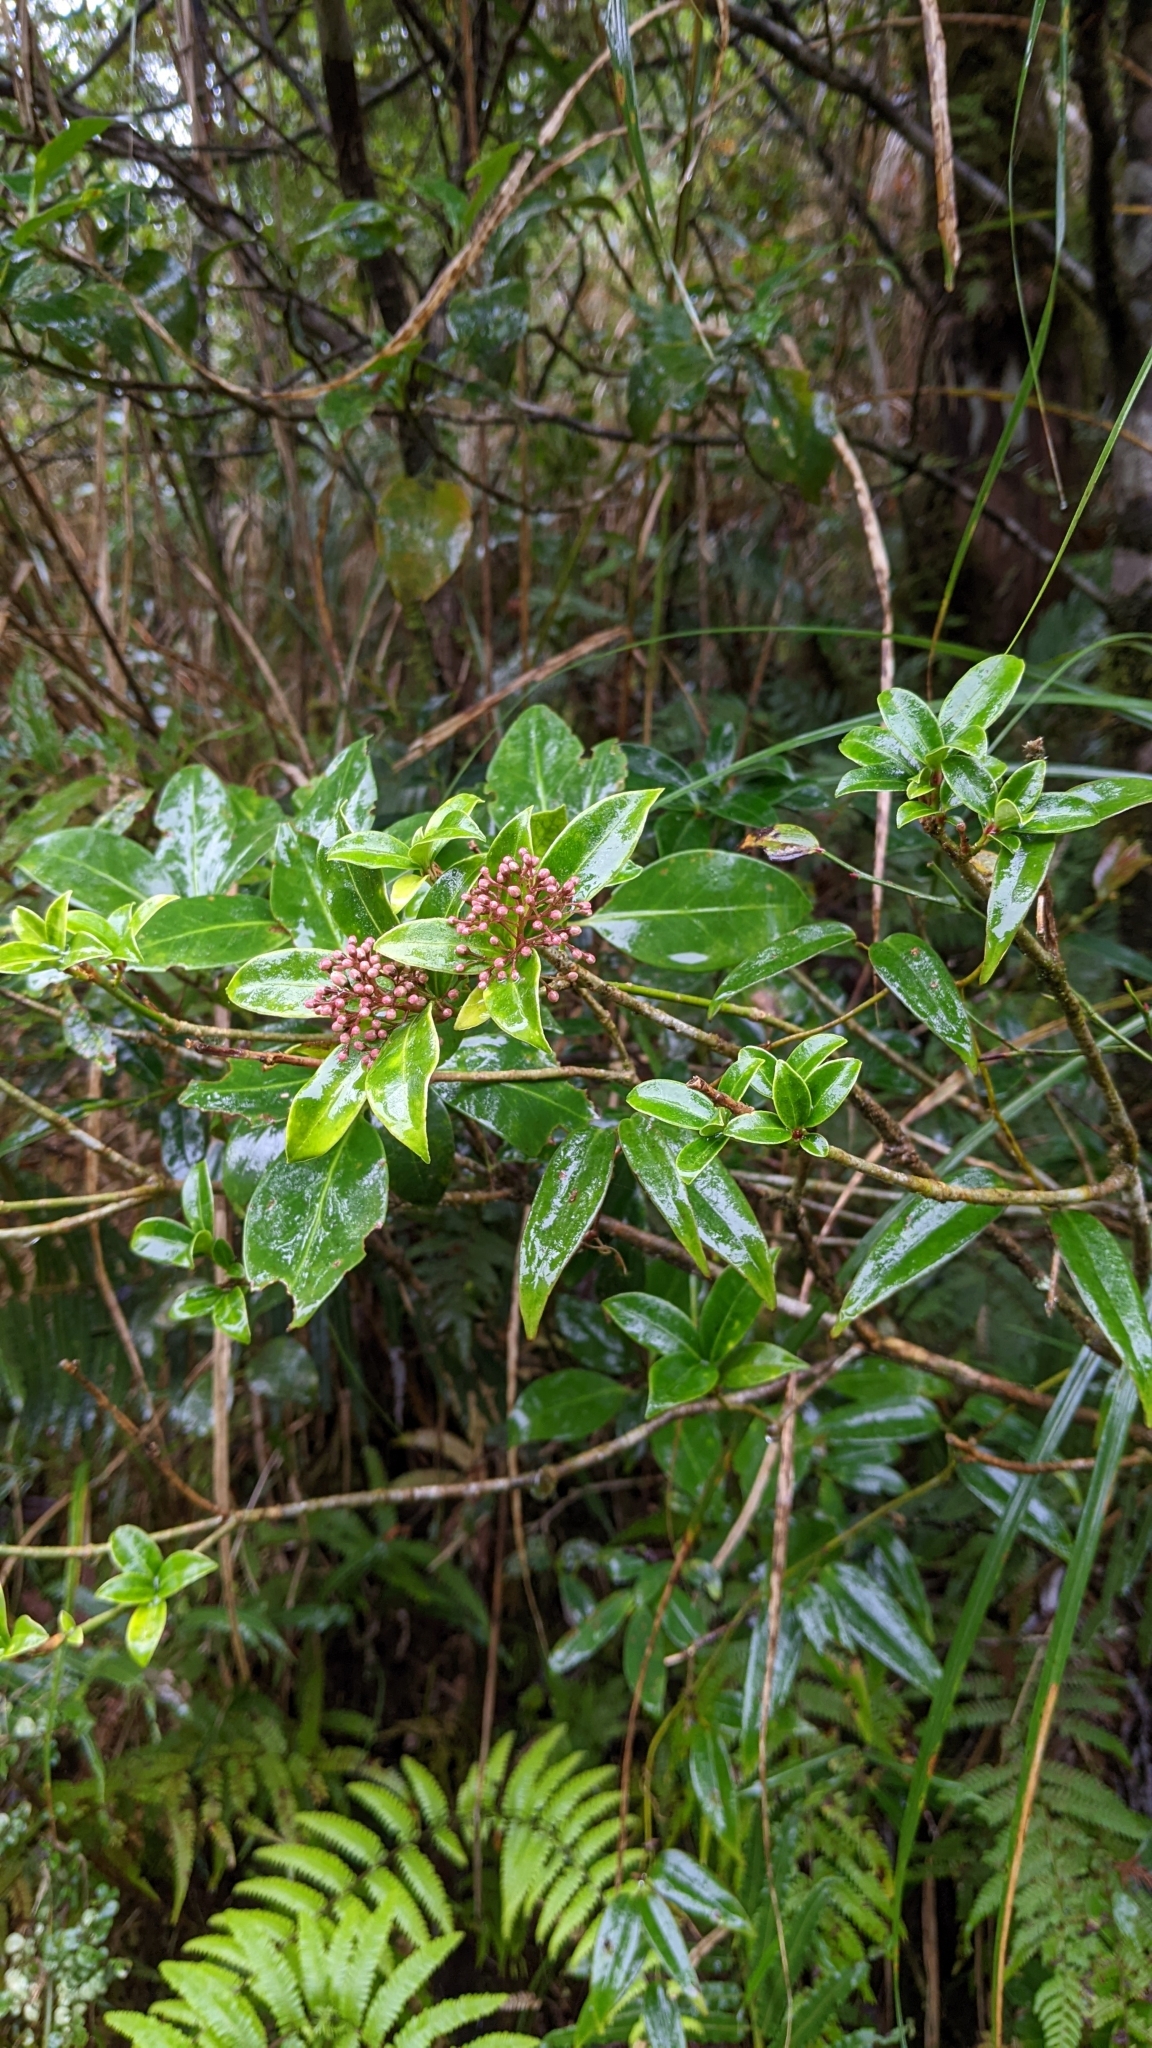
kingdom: Plantae
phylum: Tracheophyta
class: Magnoliopsida
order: Sapindales
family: Rutaceae
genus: Skimmia
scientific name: Skimmia japonica
